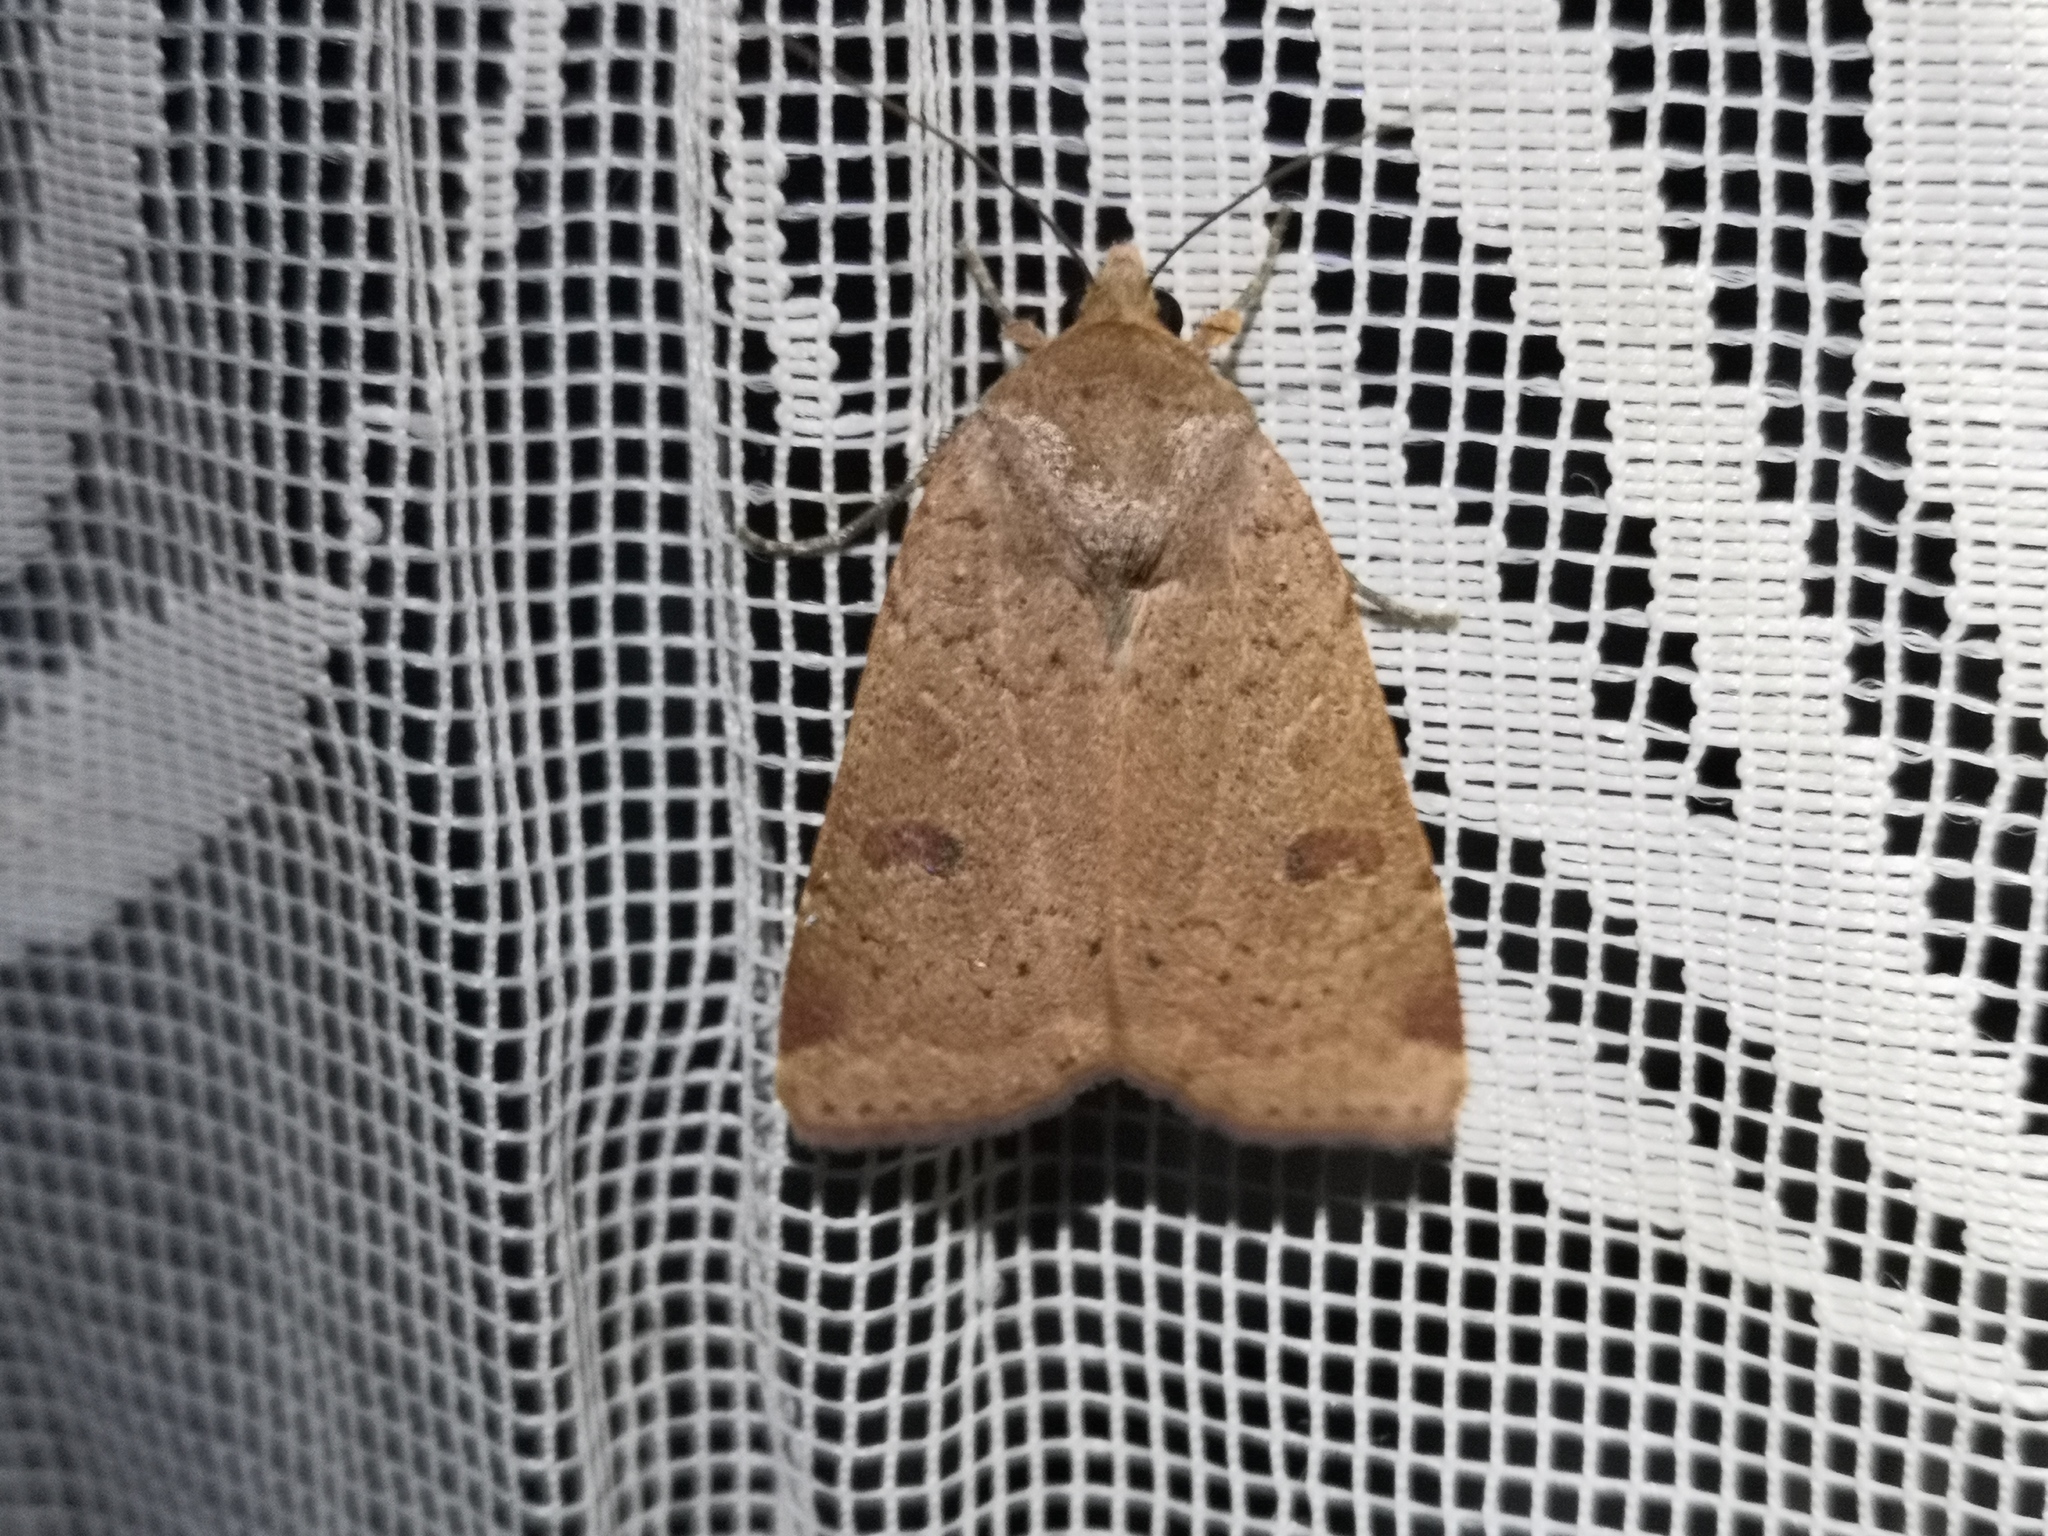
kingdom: Animalia
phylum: Arthropoda
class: Insecta
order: Lepidoptera
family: Noctuidae
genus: Noctua
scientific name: Noctua comes
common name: Lesser yellow underwing
